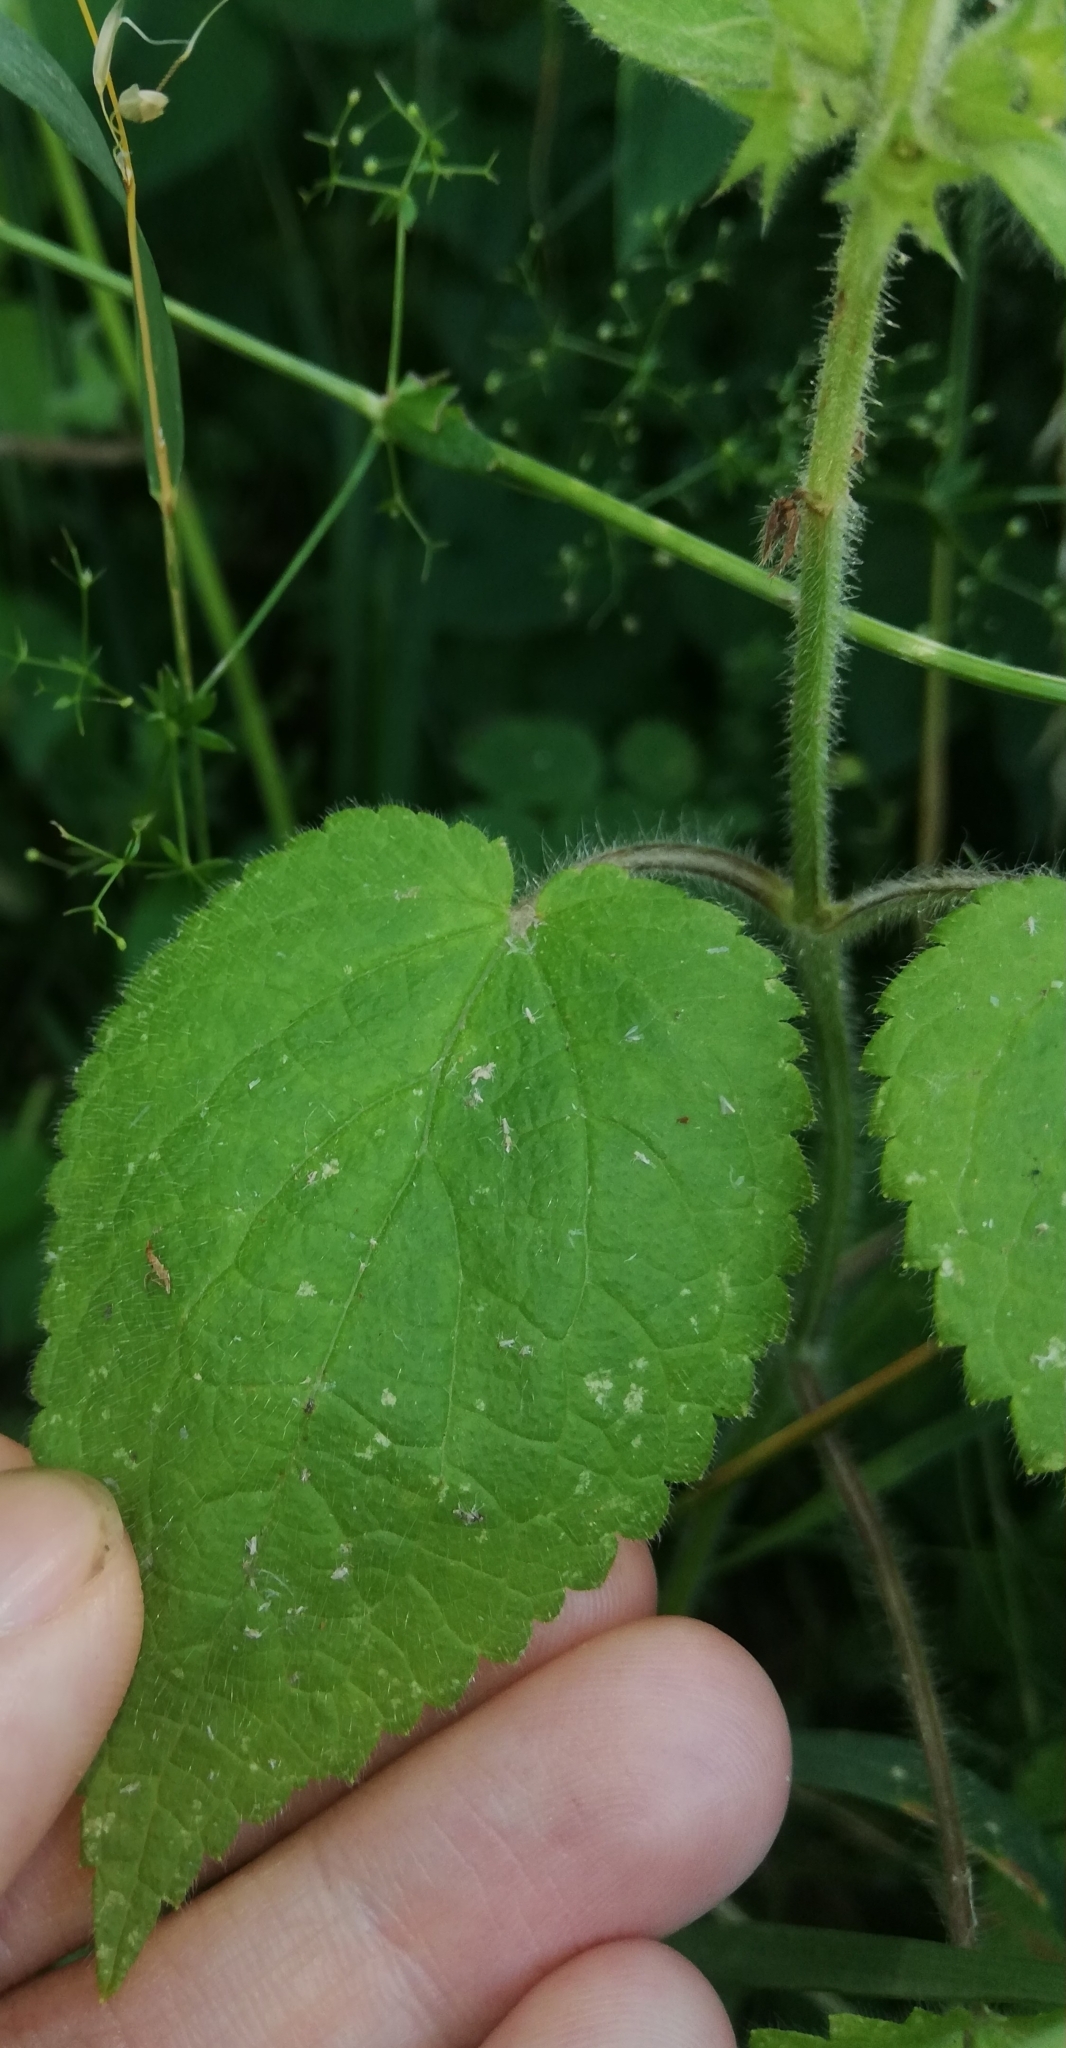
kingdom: Plantae
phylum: Tracheophyta
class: Magnoliopsida
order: Lamiales
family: Lamiaceae
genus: Stachys
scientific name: Stachys sylvatica
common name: Hedge woundwort
